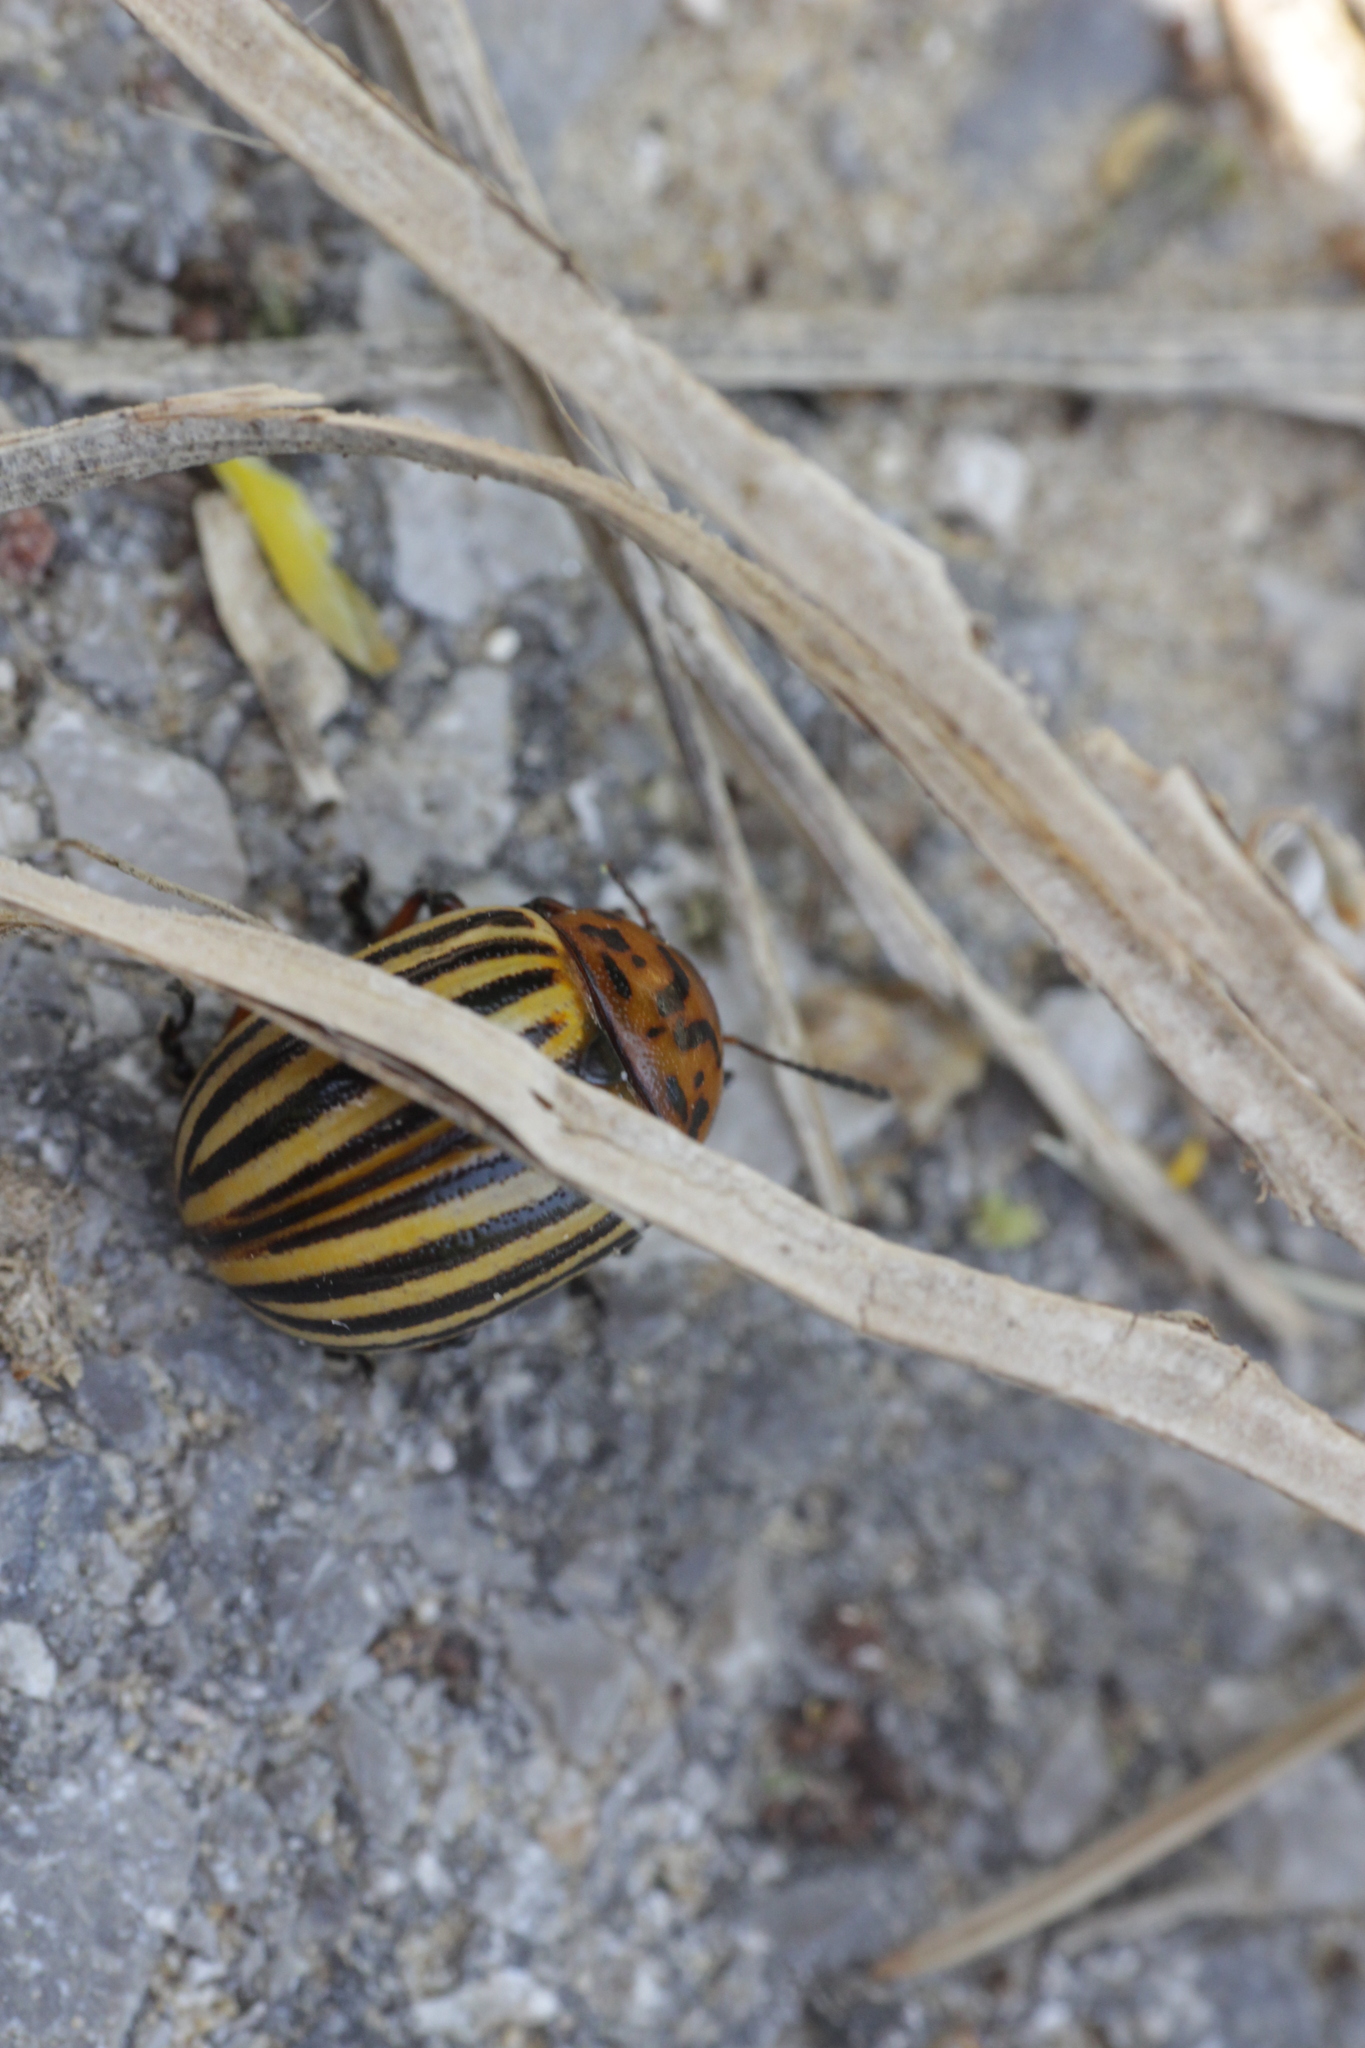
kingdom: Animalia
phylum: Arthropoda
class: Insecta
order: Coleoptera
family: Chrysomelidae
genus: Leptinotarsa
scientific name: Leptinotarsa decemlineata
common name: Colorado potato beetle
